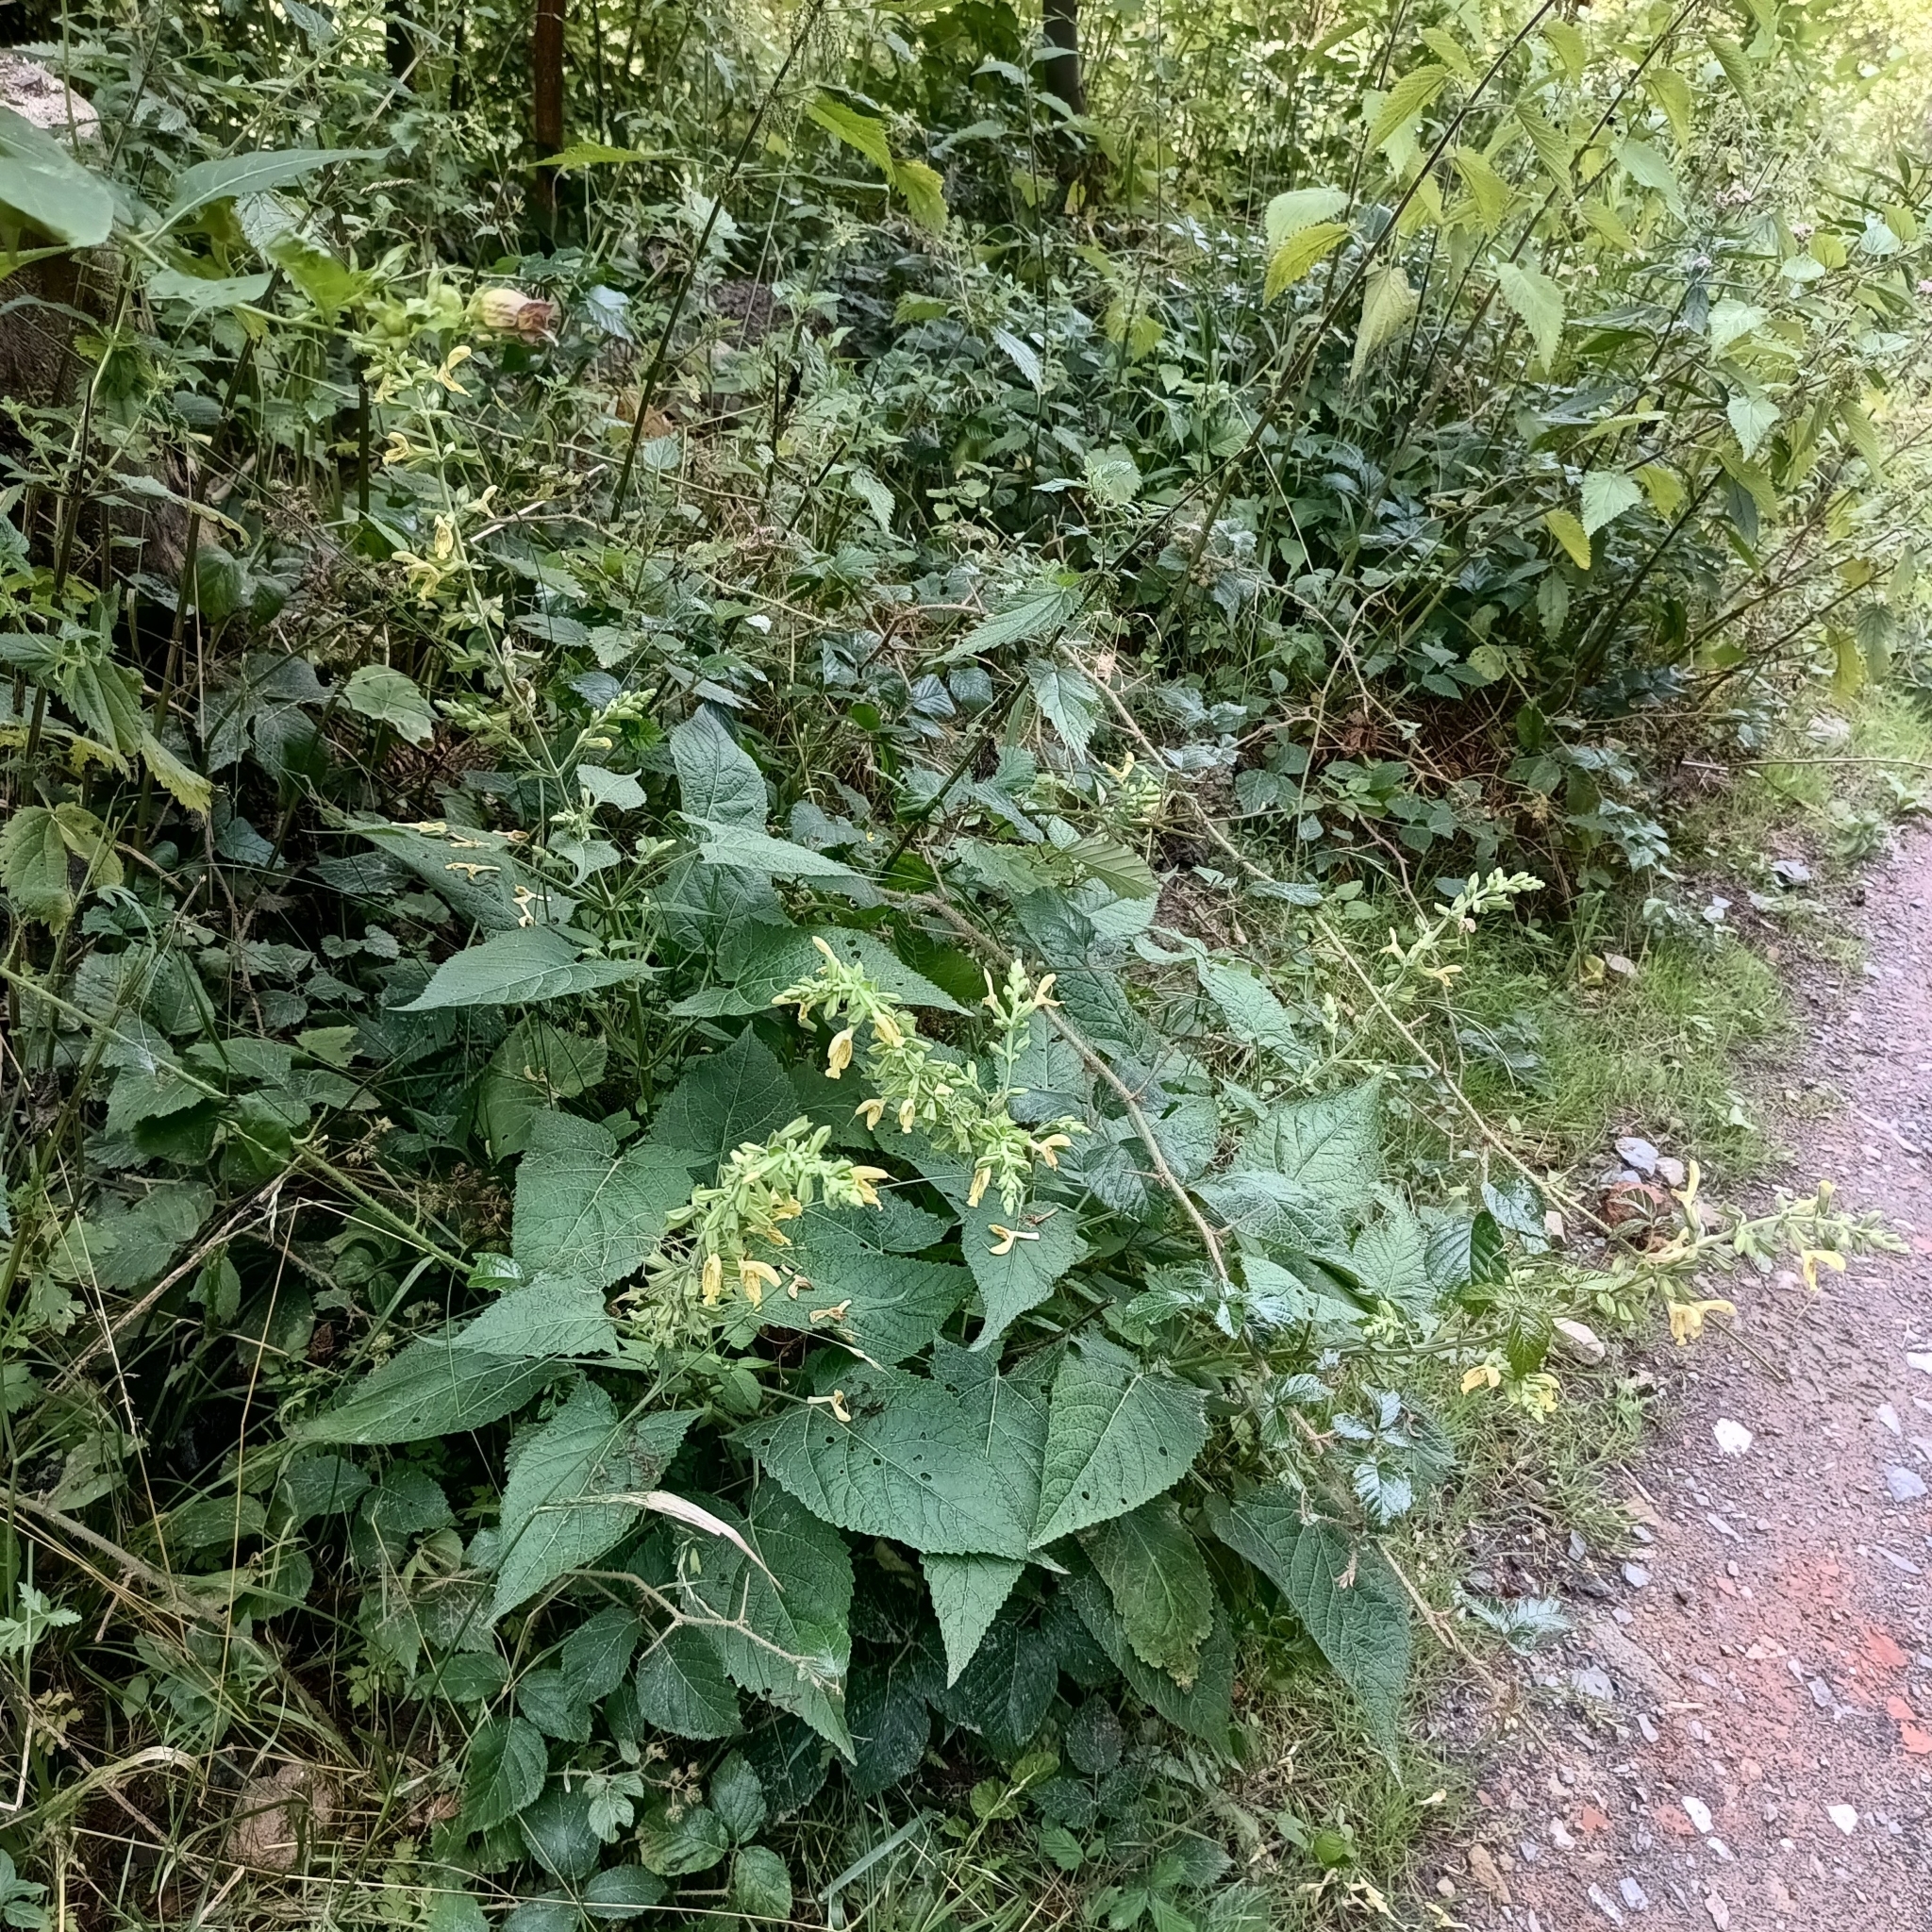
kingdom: Plantae
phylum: Tracheophyta
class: Magnoliopsida
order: Lamiales
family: Lamiaceae
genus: Salvia
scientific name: Salvia glutinosa
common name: Sticky clary
